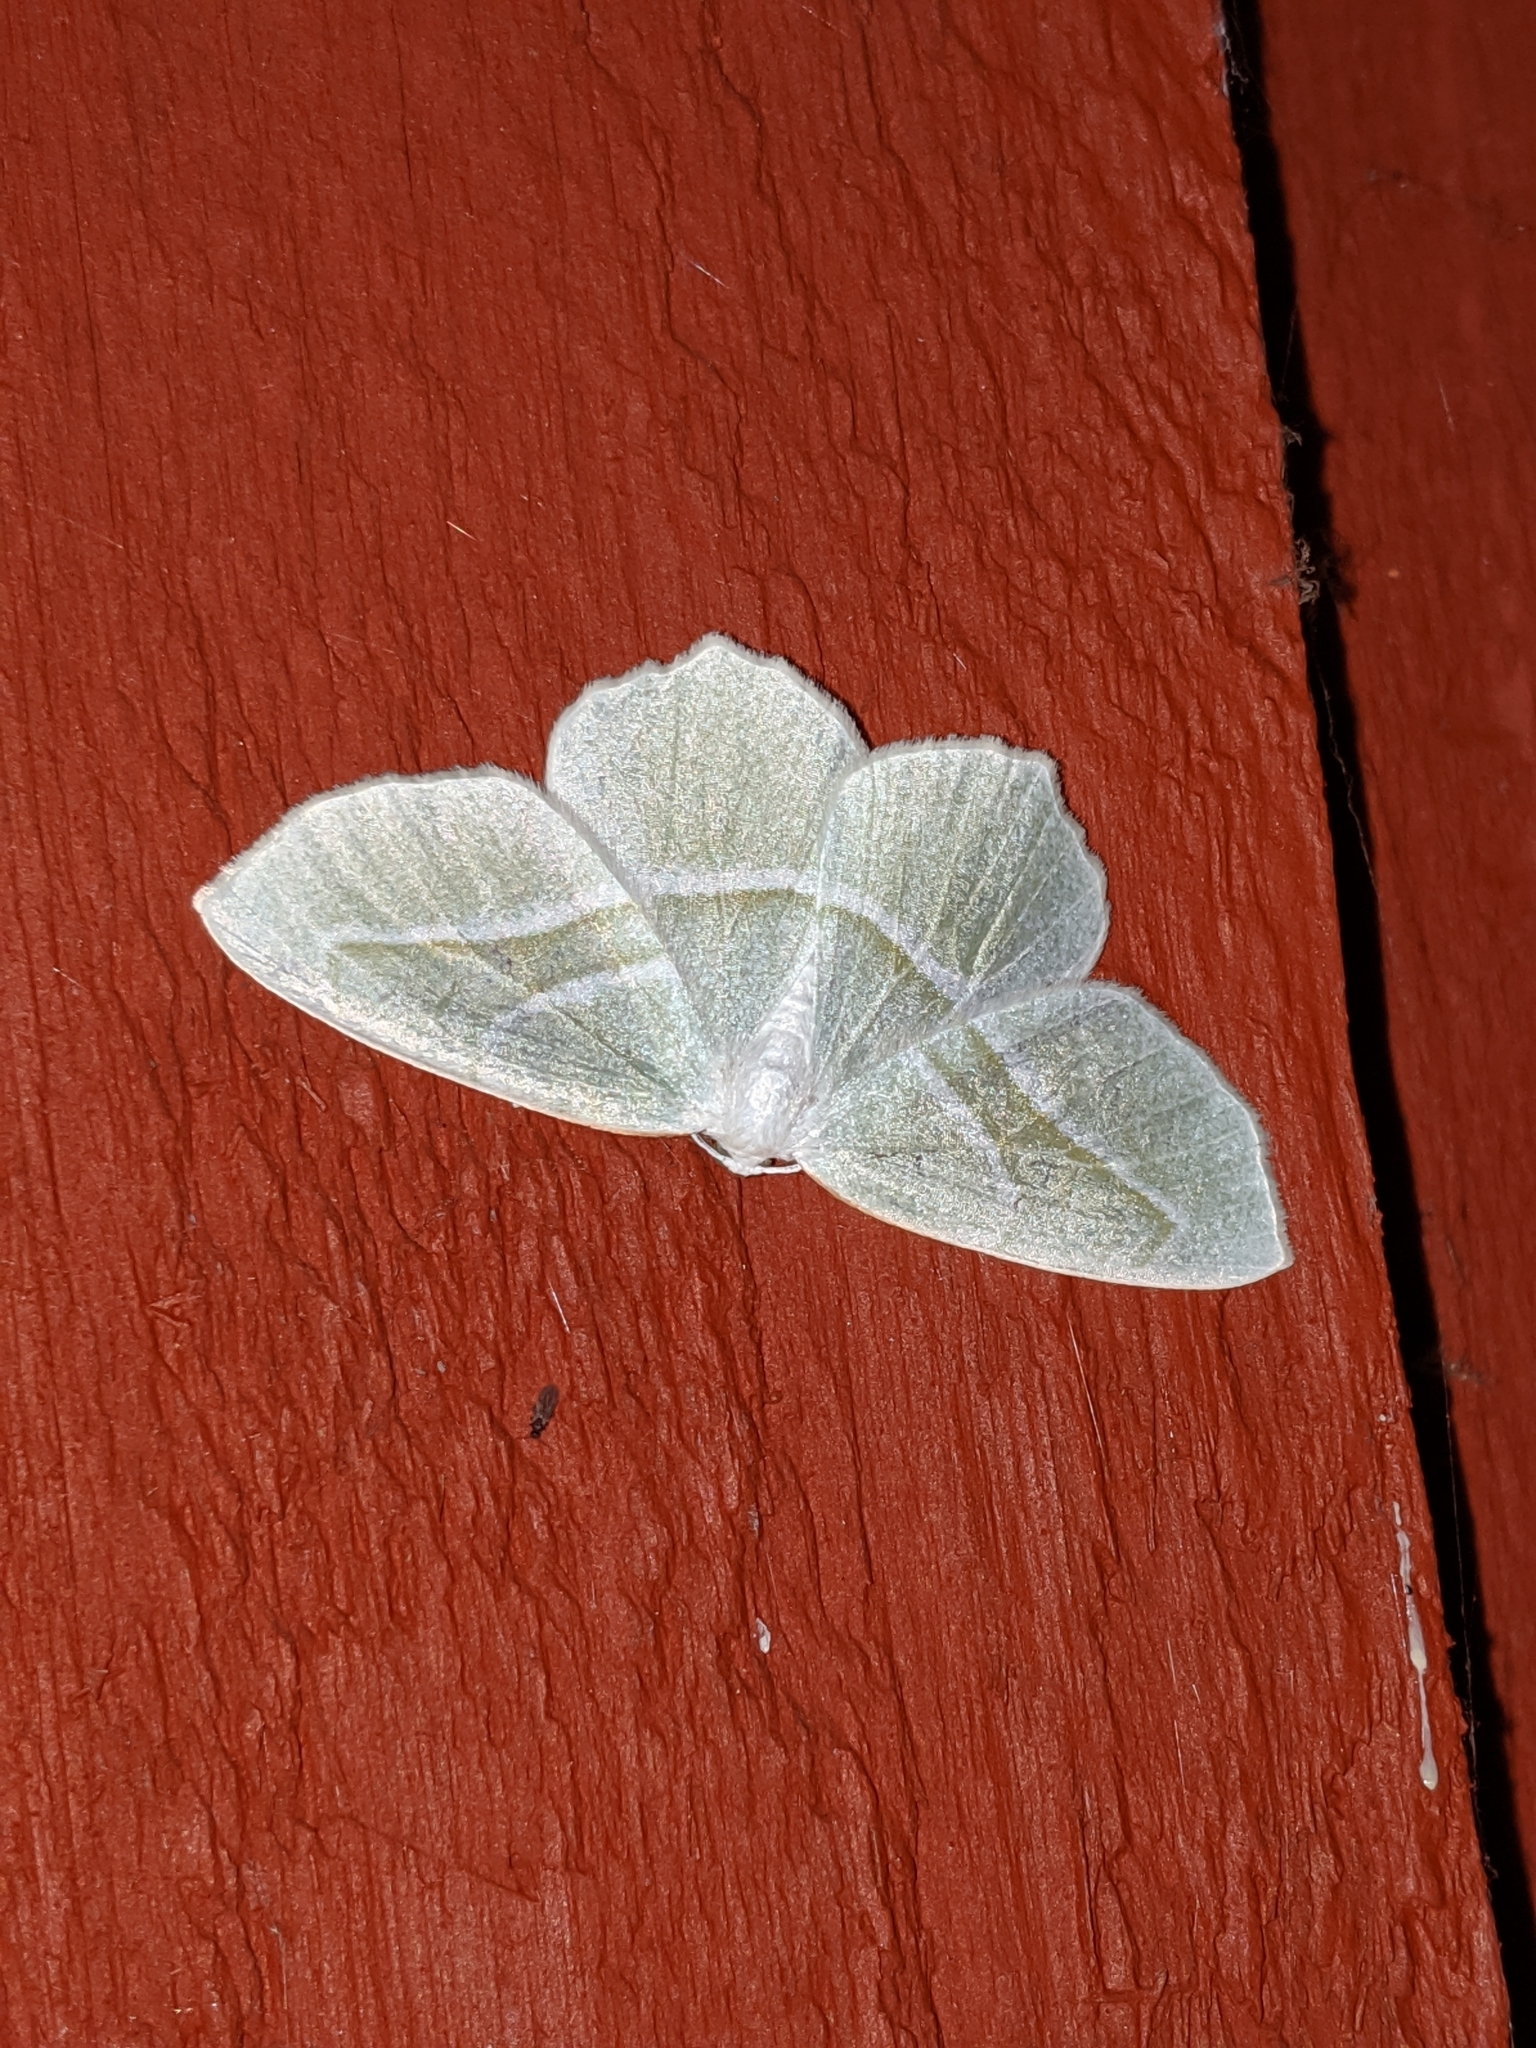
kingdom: Animalia
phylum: Arthropoda
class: Insecta
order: Lepidoptera
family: Geometridae
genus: Campaea
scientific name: Campaea perlata
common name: Fringed looper
